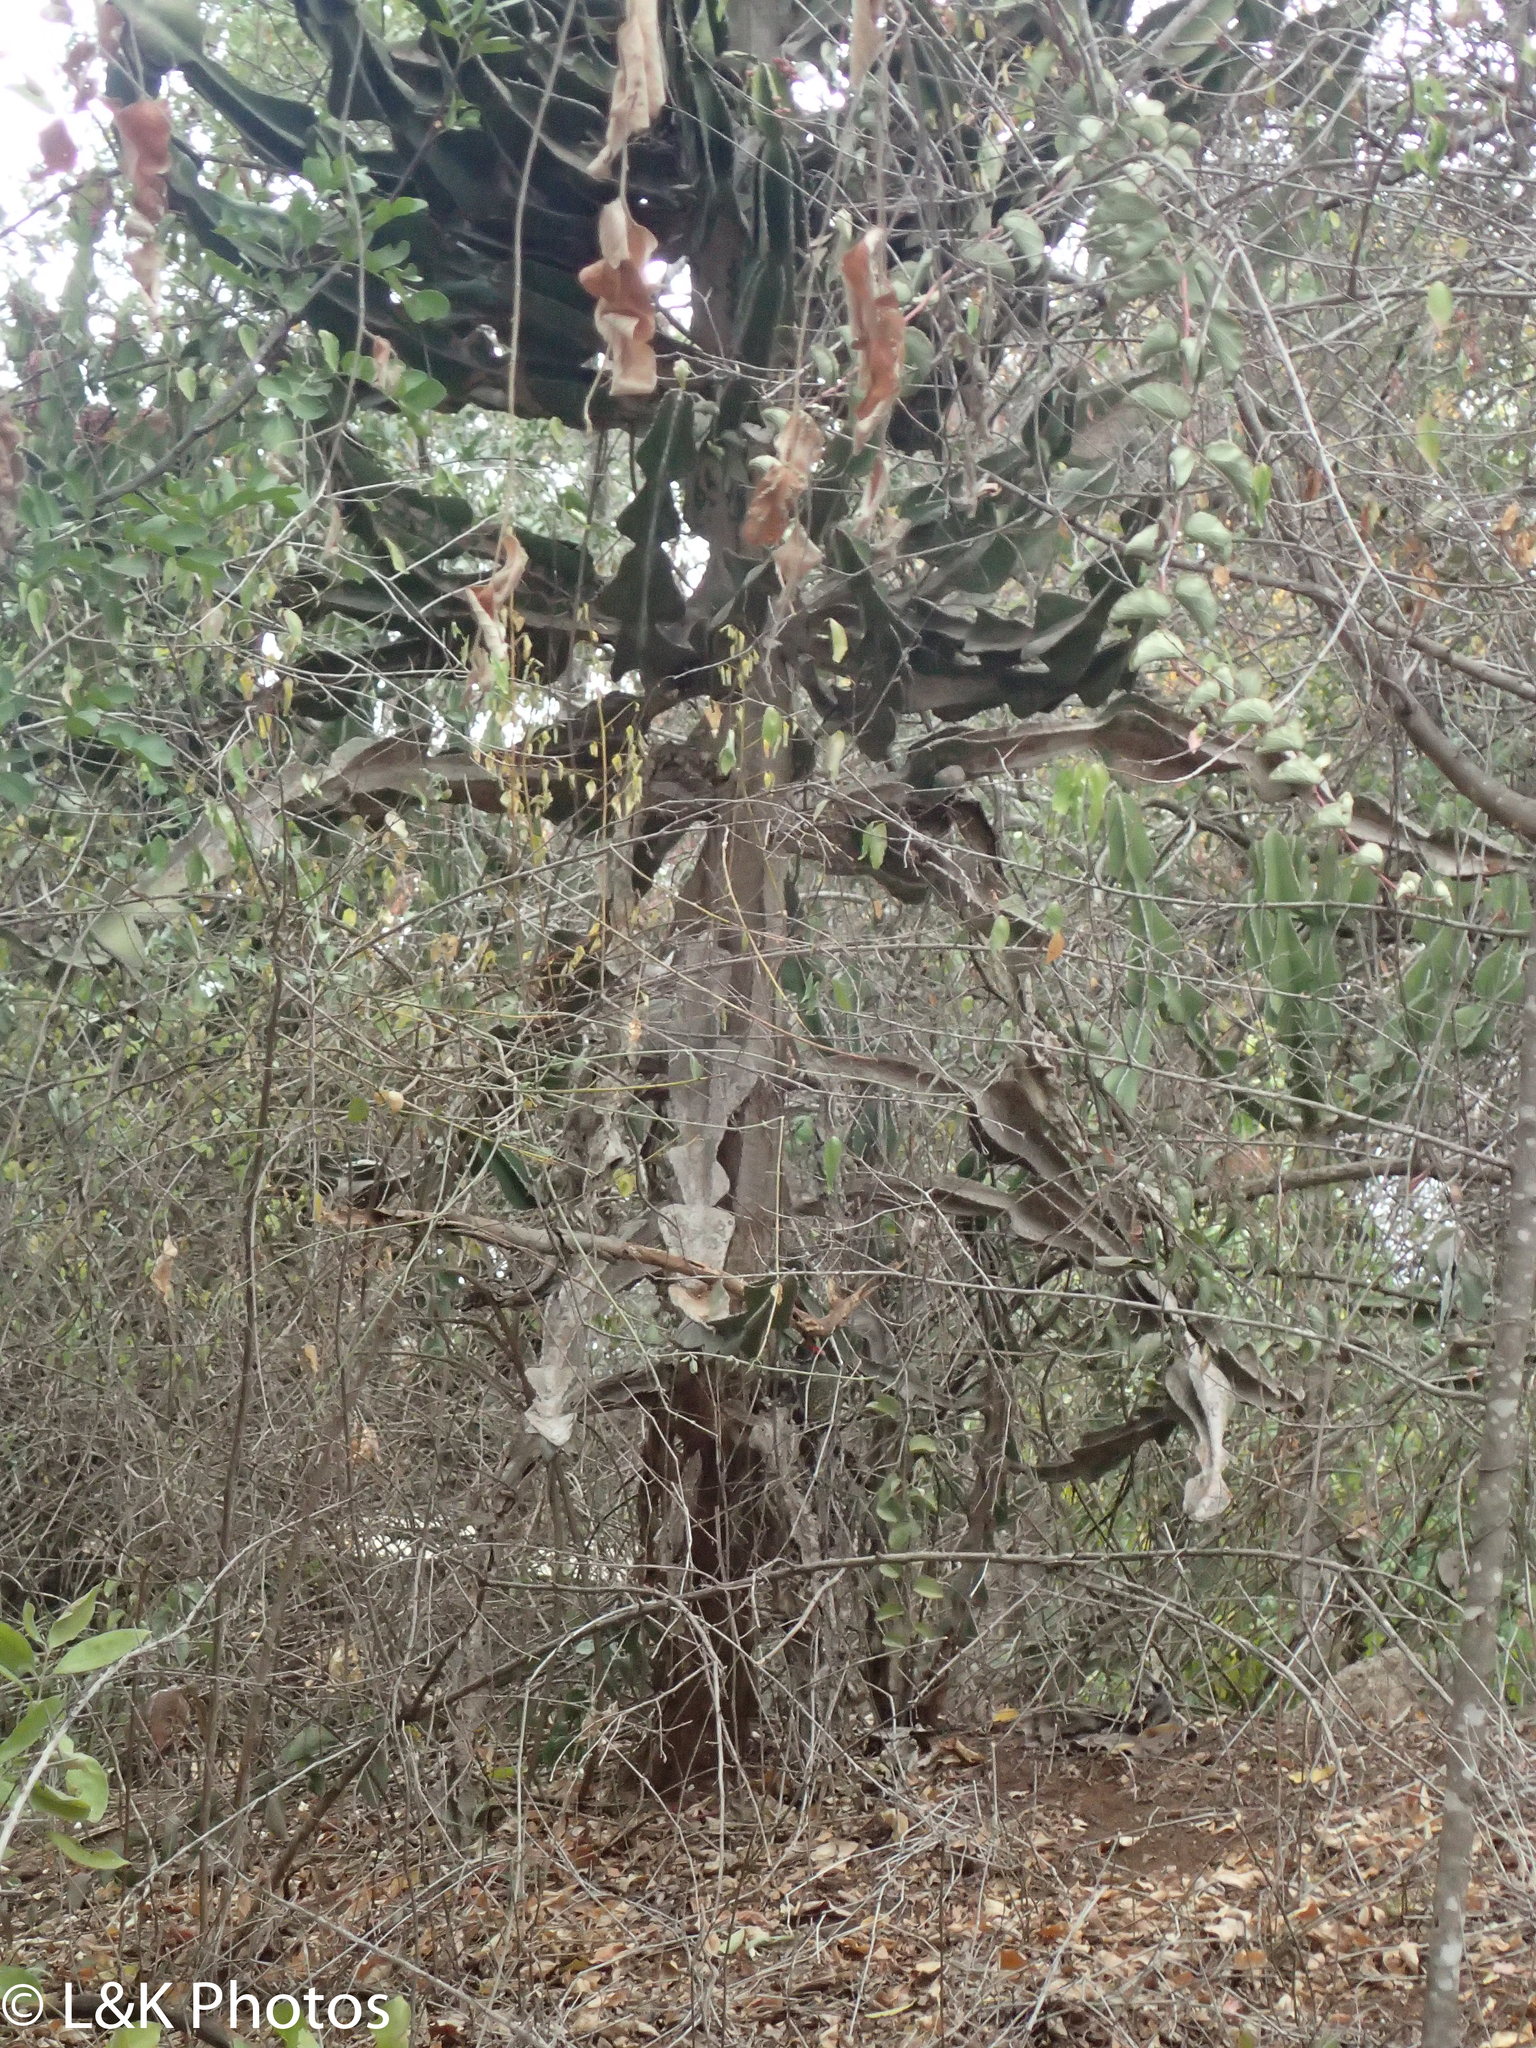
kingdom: Plantae
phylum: Tracheophyta
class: Magnoliopsida
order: Malpighiales
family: Euphorbiaceae
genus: Euphorbia
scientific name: Euphorbia cooperi
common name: Candelabra tree
